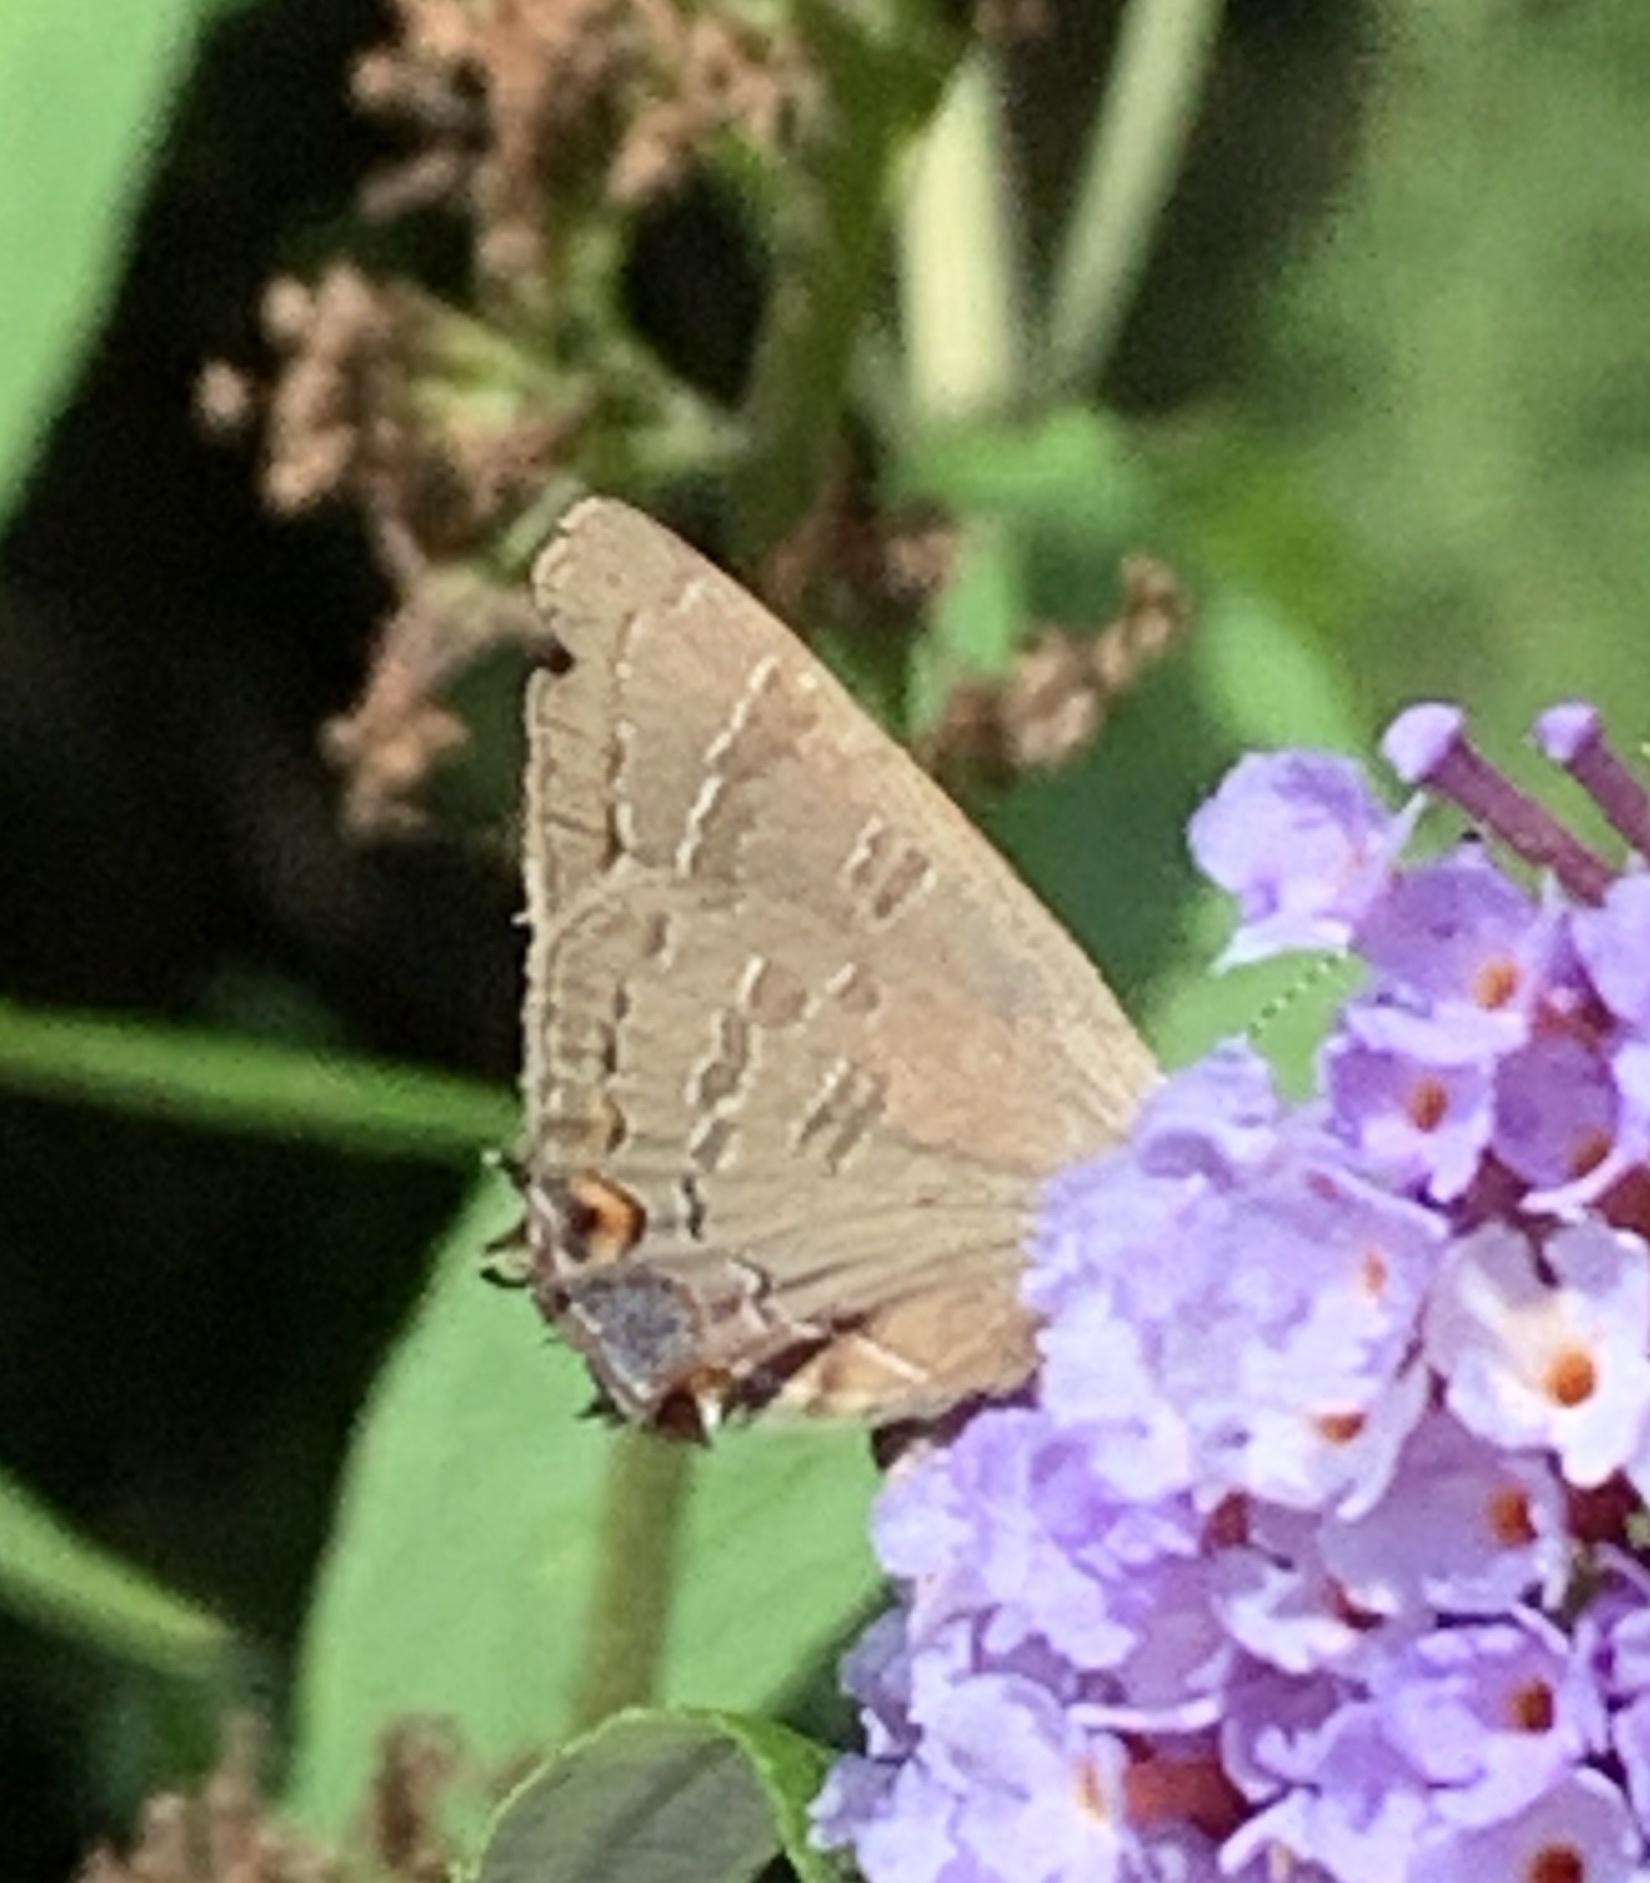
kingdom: Animalia
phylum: Arthropoda
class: Insecta
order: Lepidoptera
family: Lycaenidae
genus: Satyrium
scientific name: Satyrium calanus
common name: Banded hairstreak
